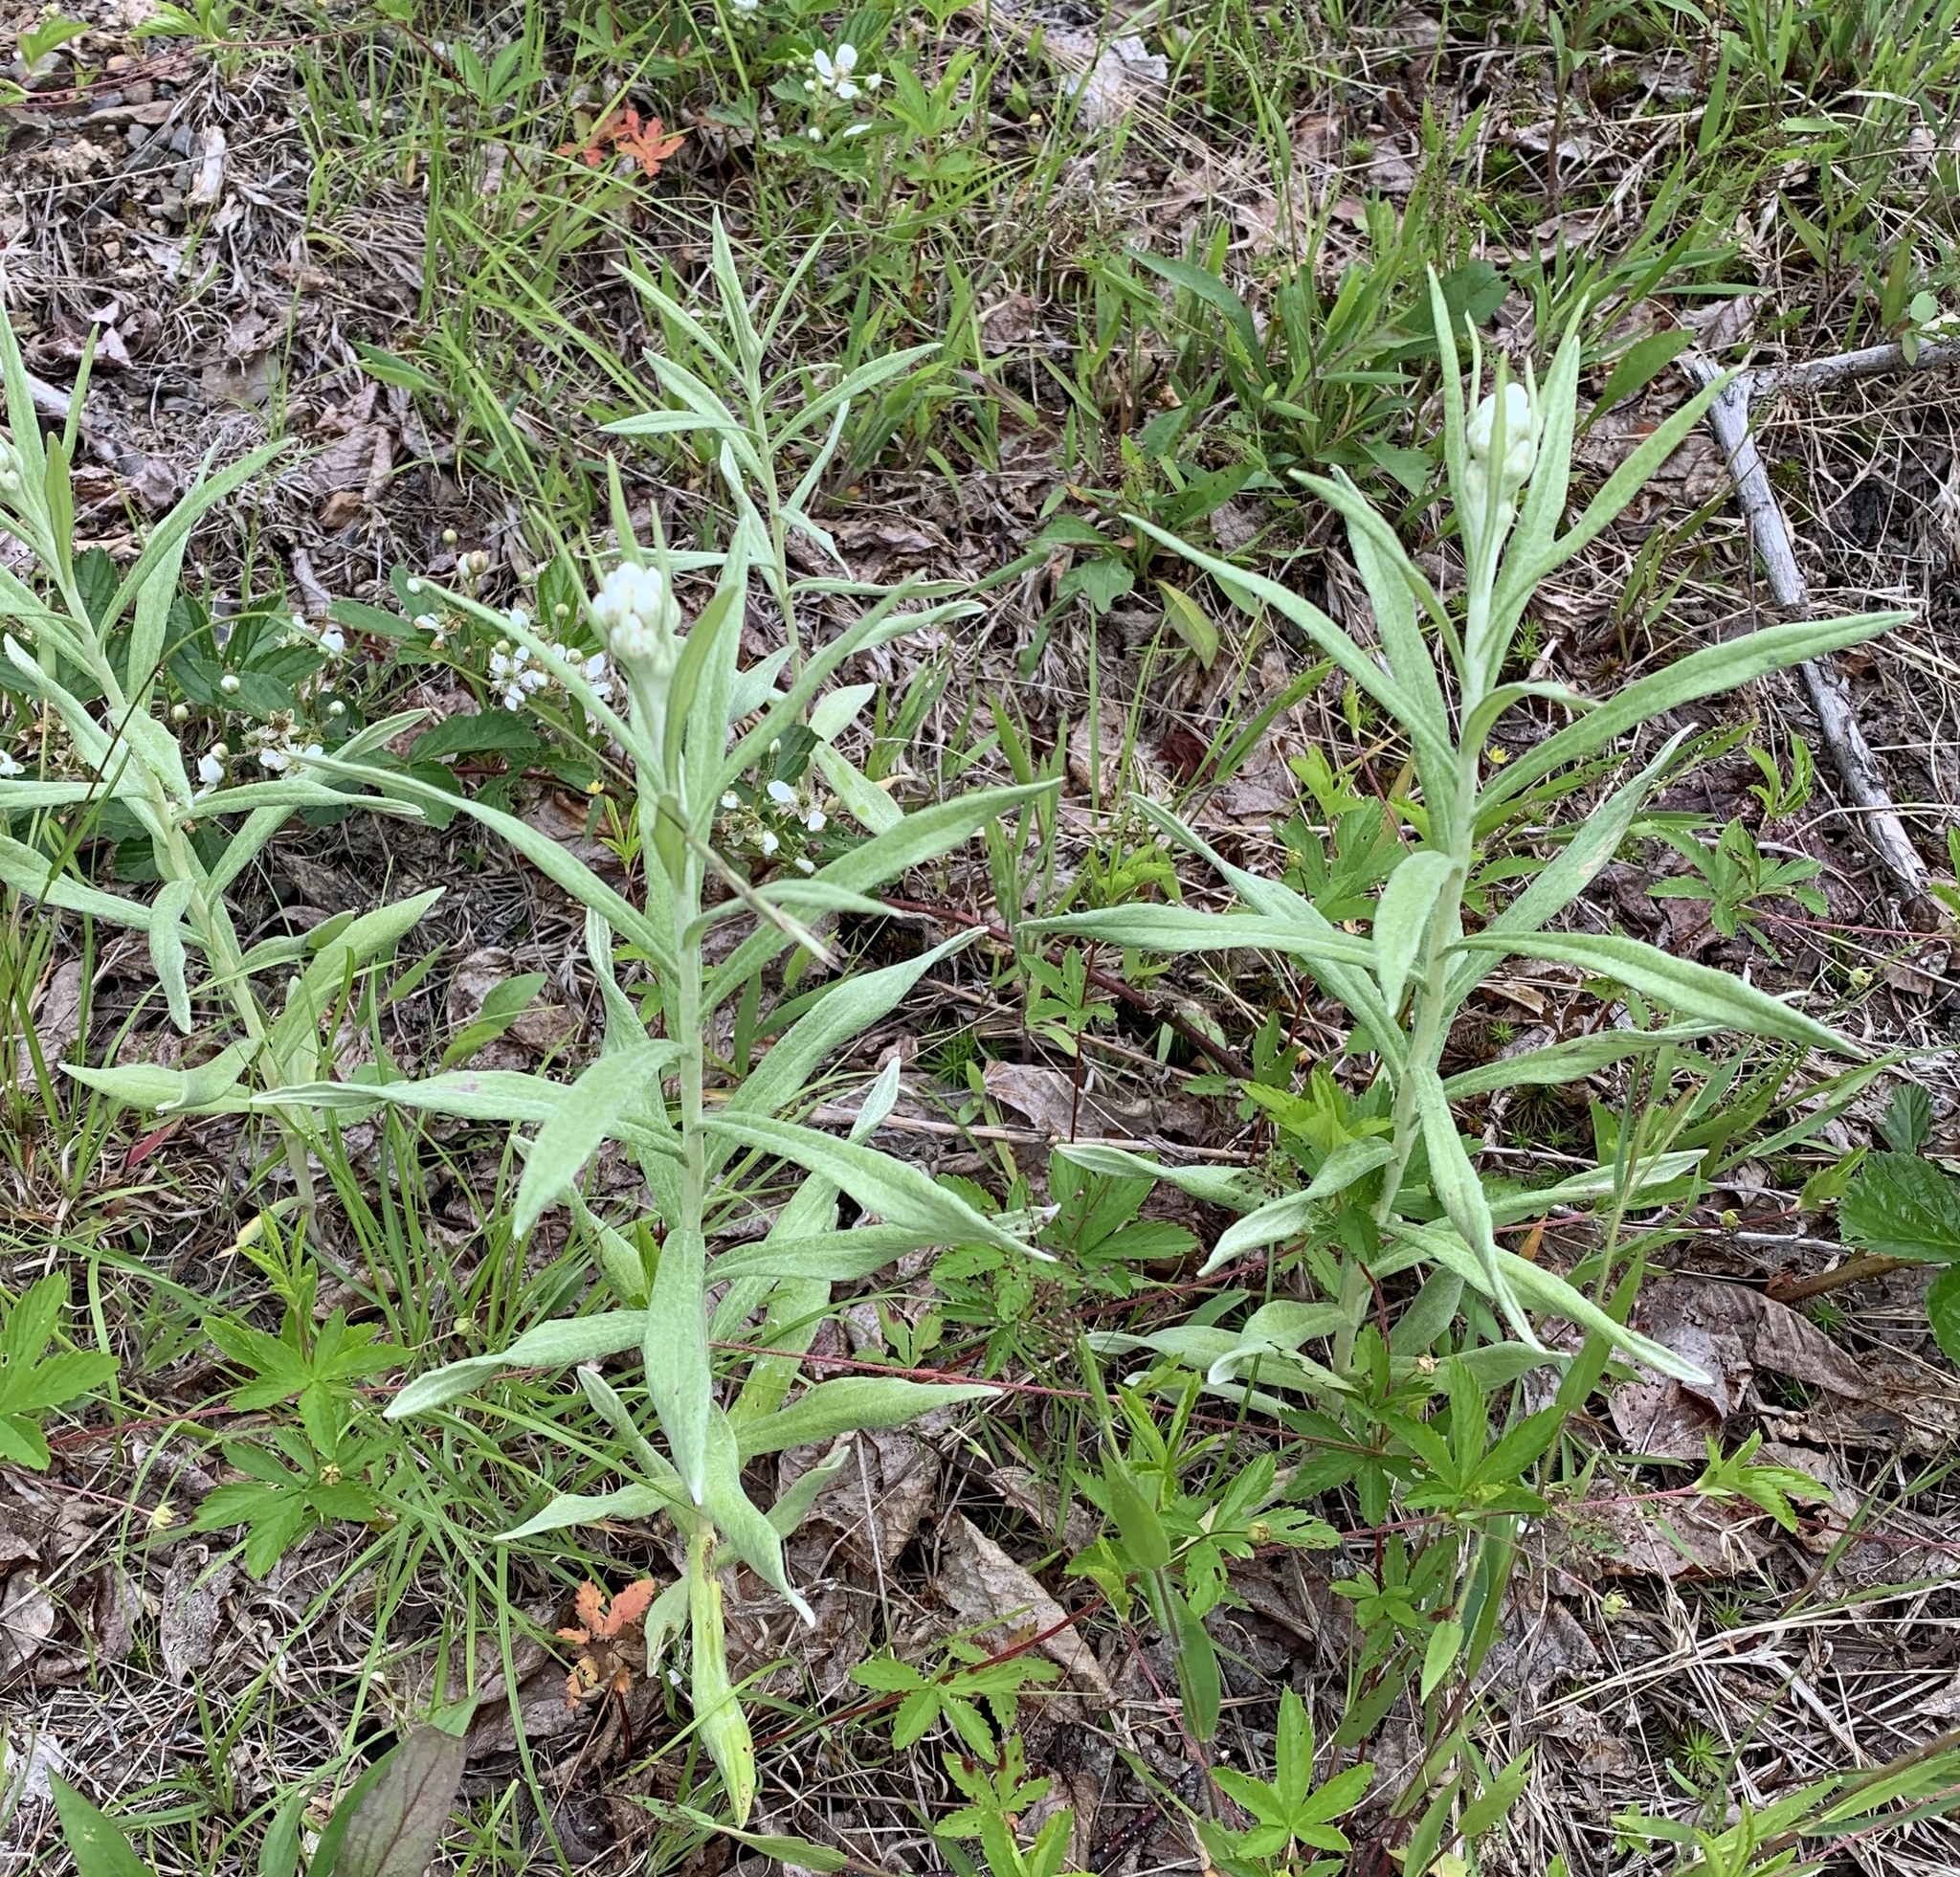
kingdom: Plantae
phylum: Tracheophyta
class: Magnoliopsida
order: Asterales
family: Asteraceae
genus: Anaphalis
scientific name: Anaphalis margaritacea
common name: Pearly everlasting
